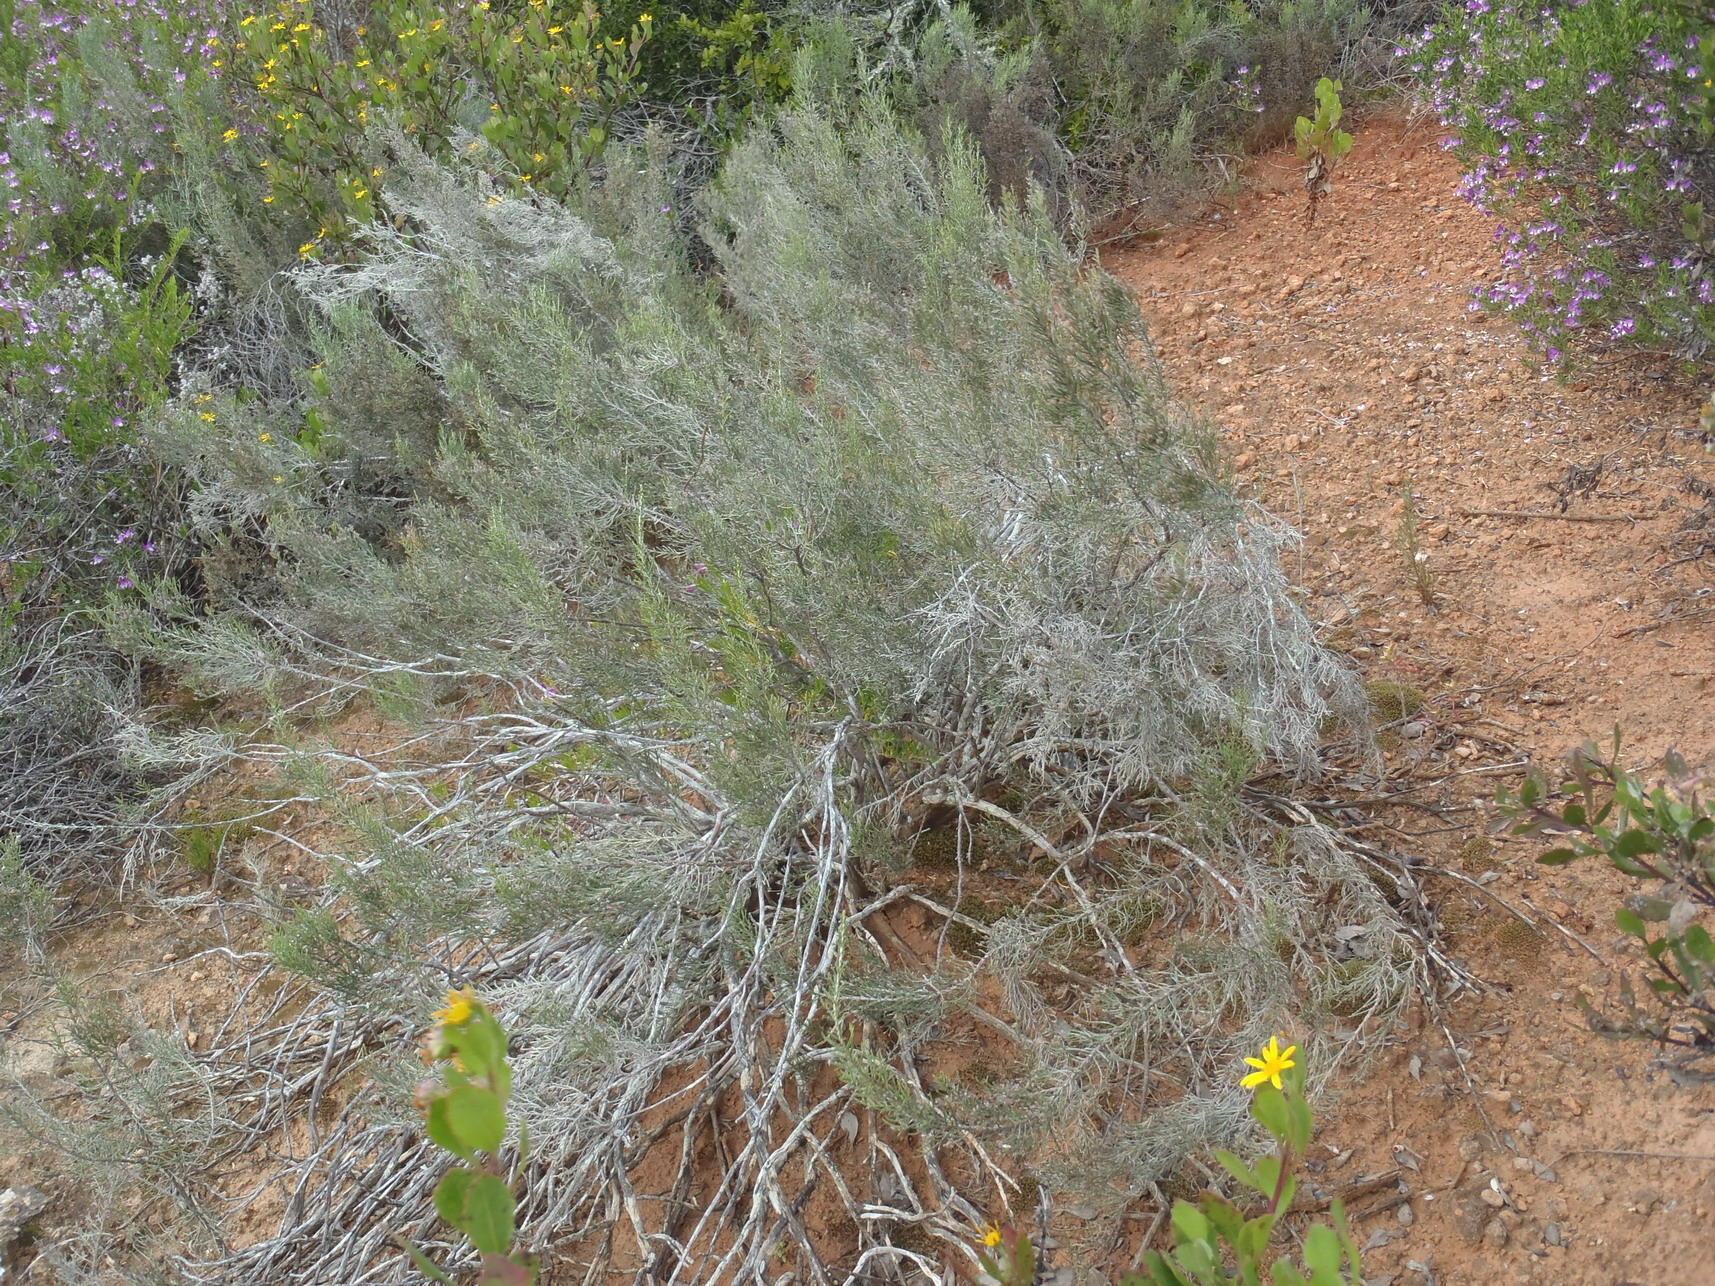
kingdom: Plantae
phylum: Tracheophyta
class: Magnoliopsida
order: Asterales
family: Asteraceae
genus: Dicerothamnus
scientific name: Dicerothamnus rhinocerotis
